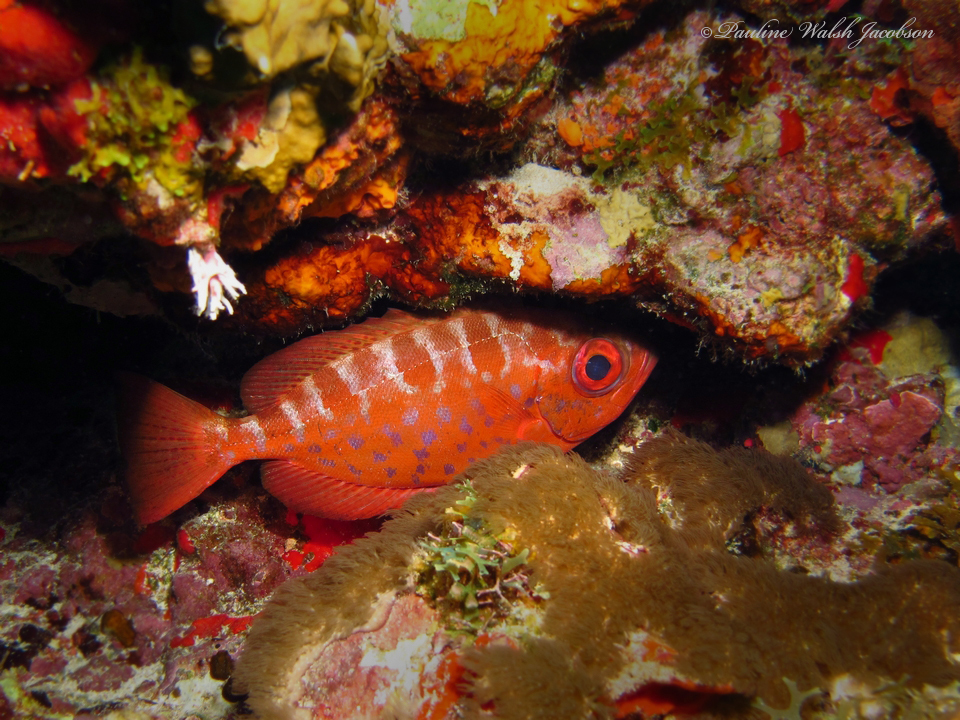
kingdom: Animalia
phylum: Chordata
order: Perciformes
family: Priacanthidae
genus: Heteropriacanthus
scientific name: Heteropriacanthus cruentatus
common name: Glasseye
